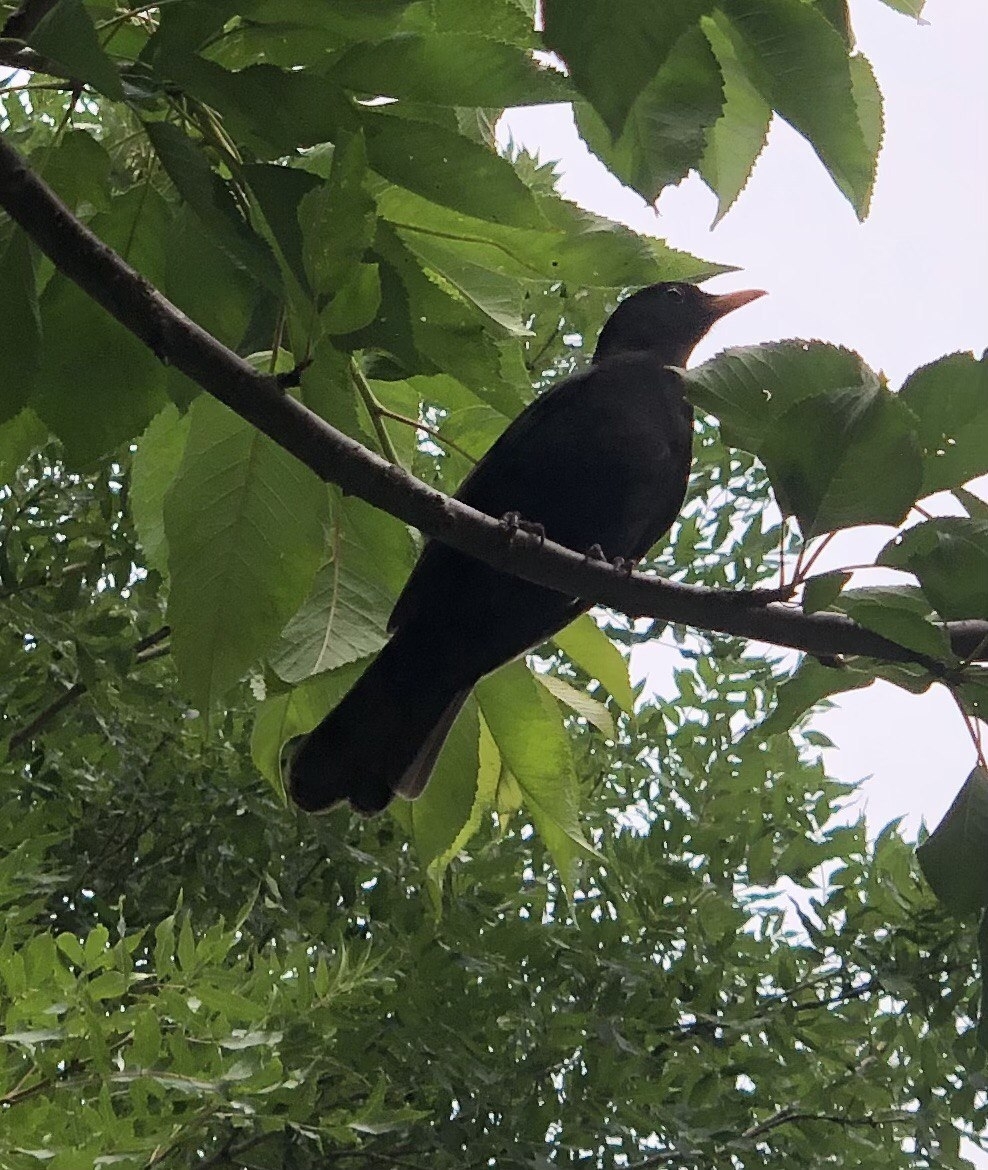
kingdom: Animalia
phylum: Chordata
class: Aves
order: Passeriformes
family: Turdidae
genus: Turdus
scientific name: Turdus merula
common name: Common blackbird
